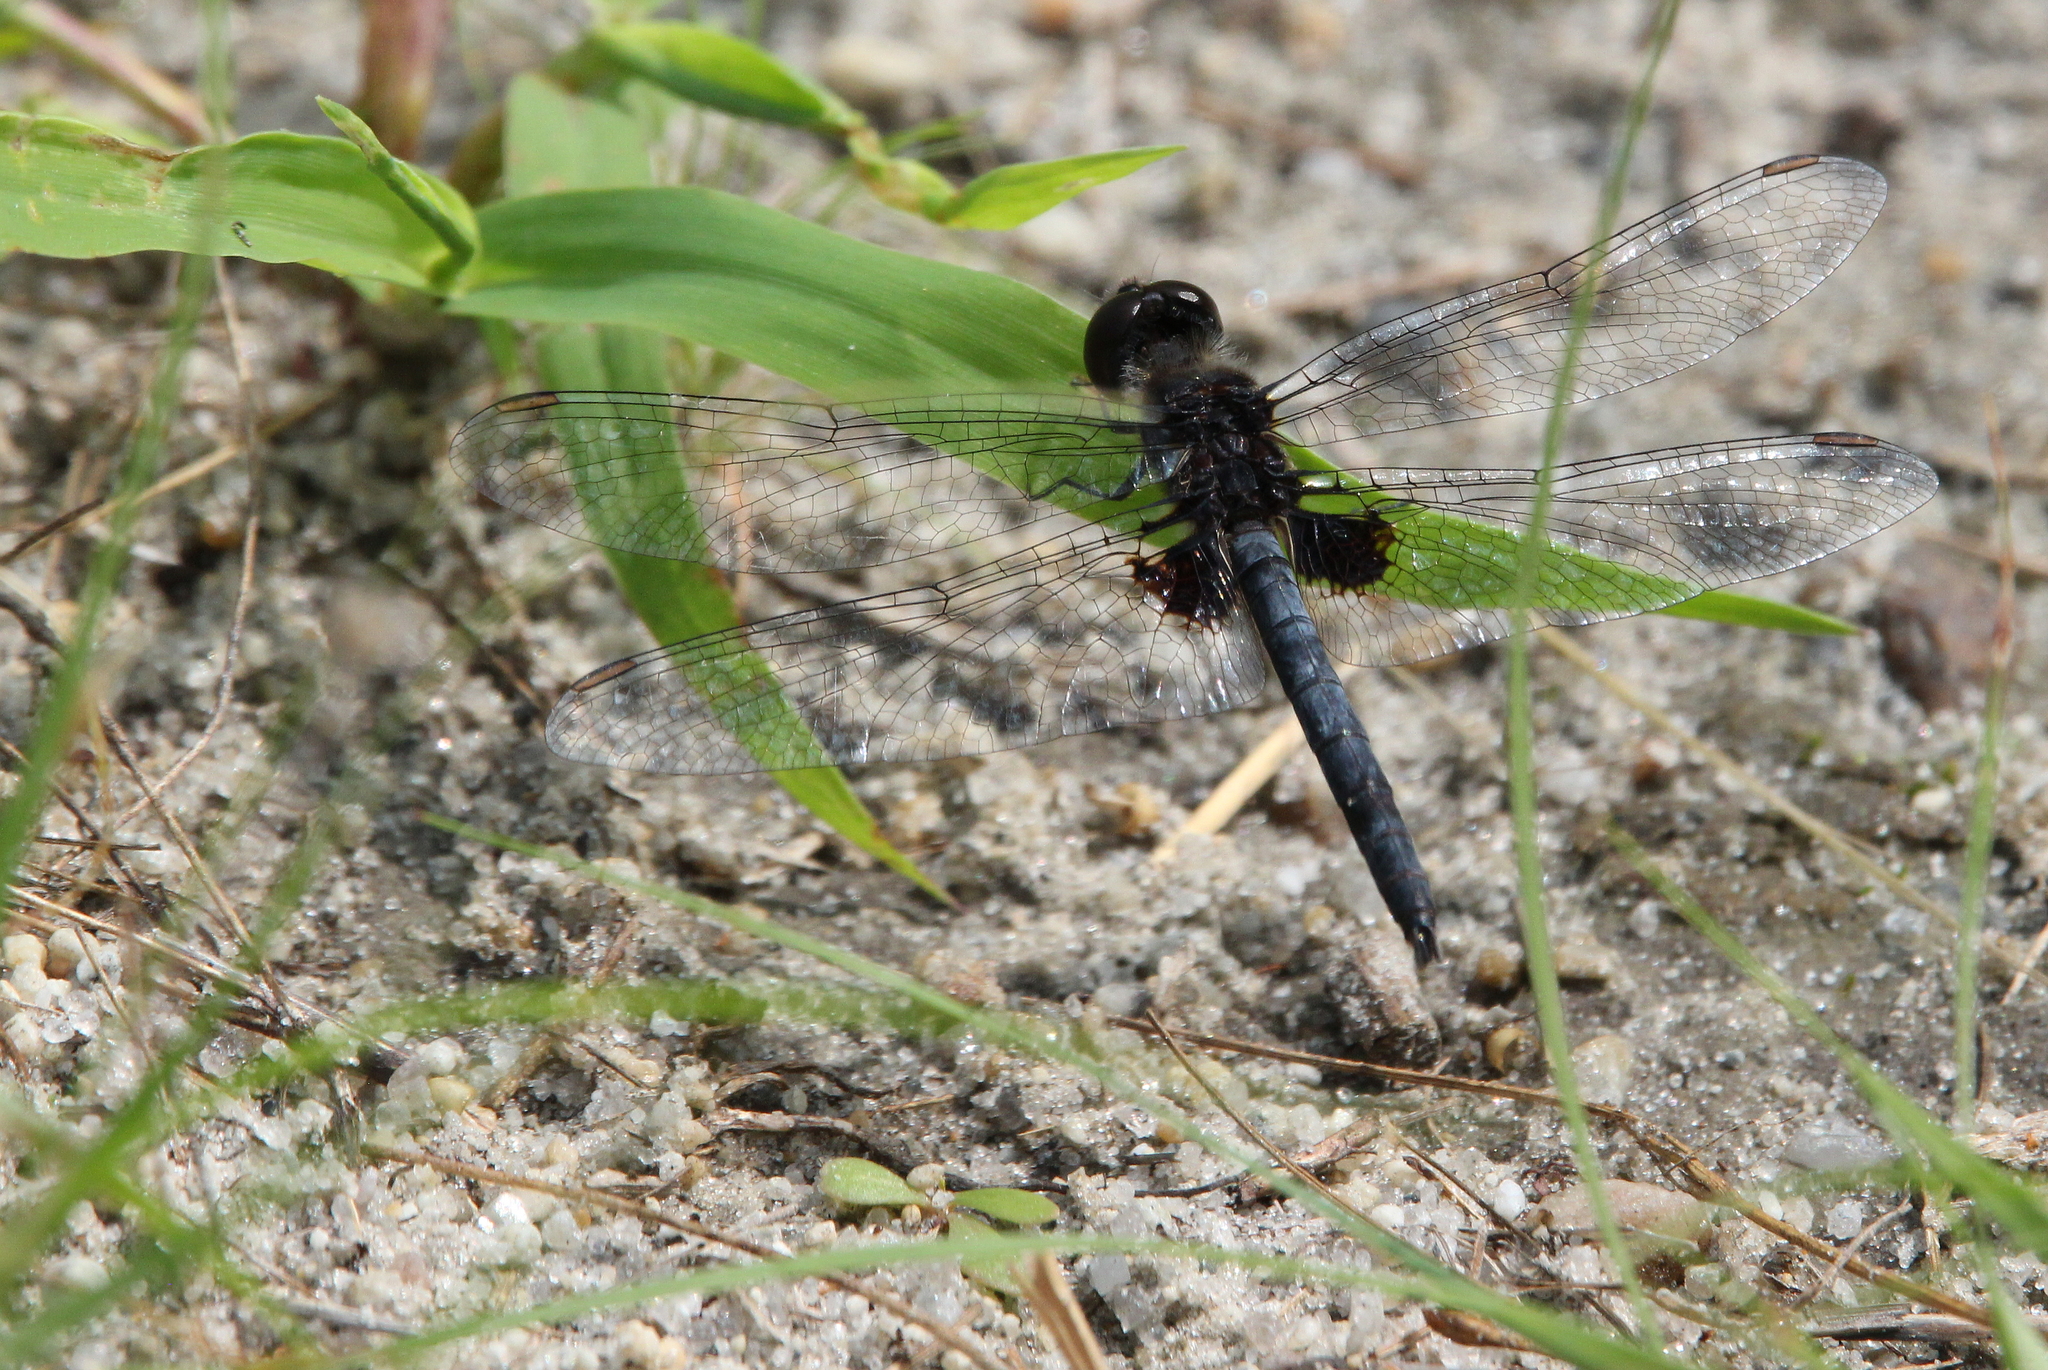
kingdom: Animalia
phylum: Arthropoda
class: Insecta
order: Odonata
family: Libellulidae
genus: Celithemis
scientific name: Celithemis martha
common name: Martha's pennant
